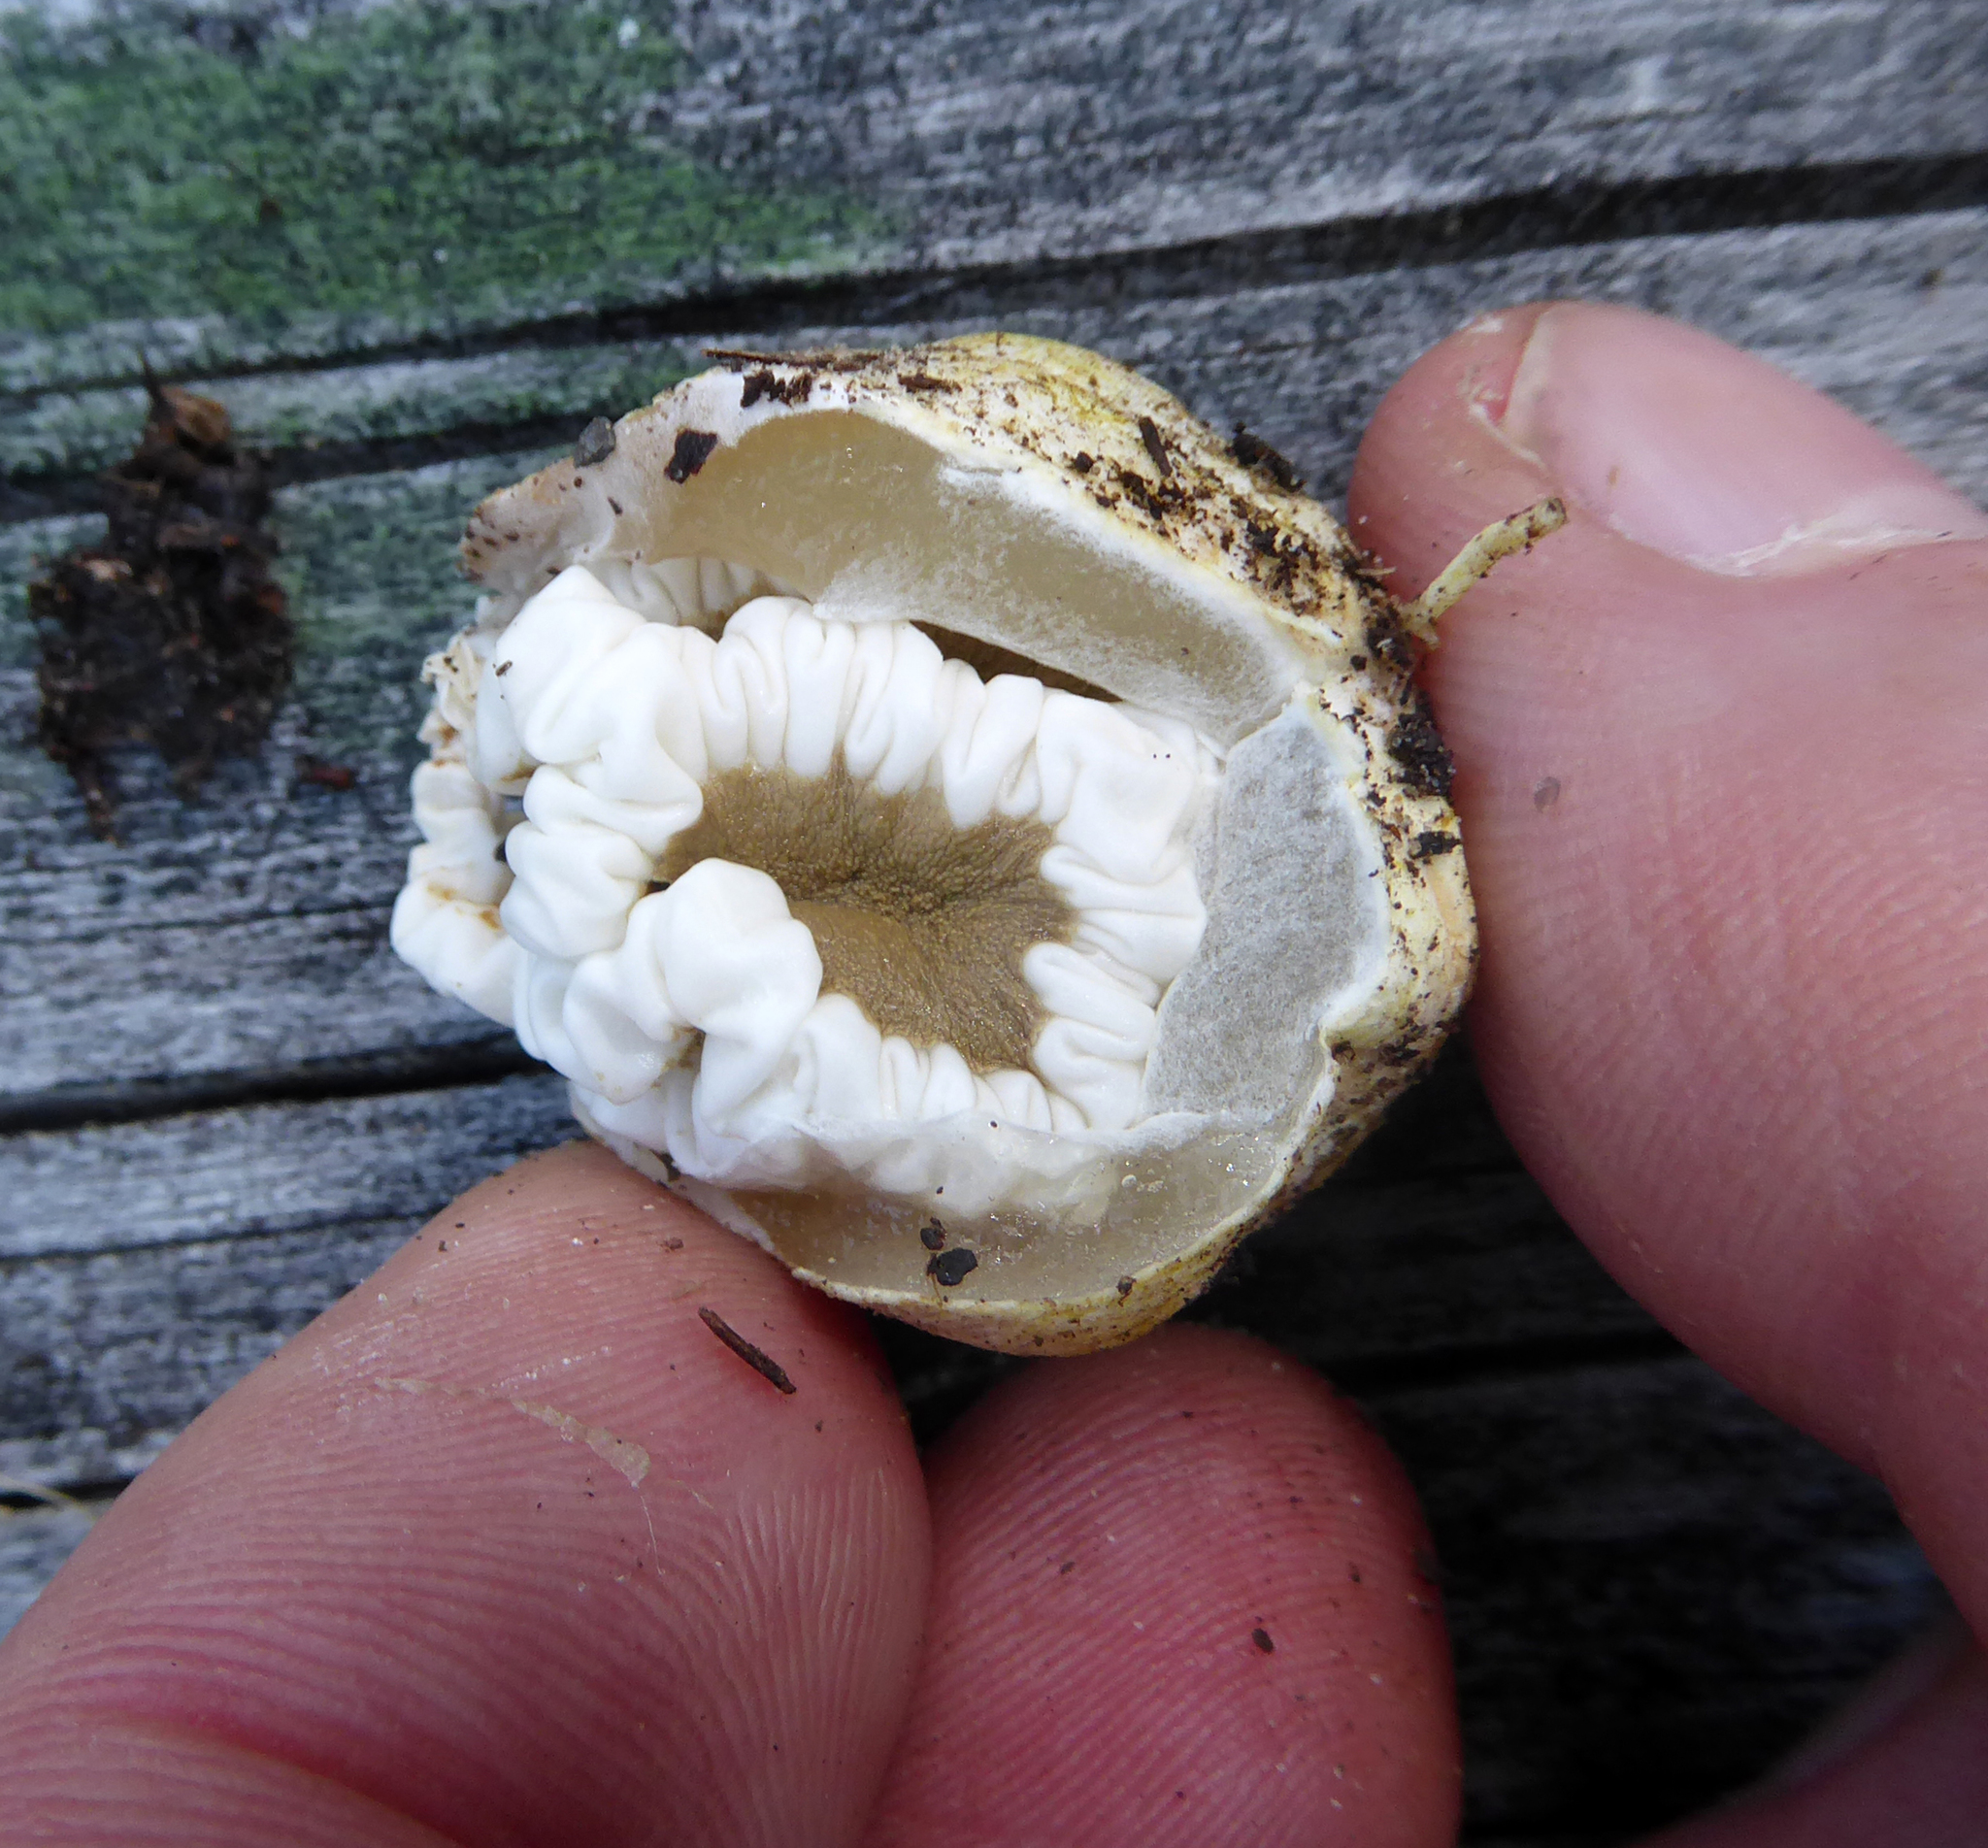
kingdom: Fungi
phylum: Basidiomycota
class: Agaricomycetes
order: Phallales
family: Phallaceae
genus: Ileodictyon
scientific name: Ileodictyon cibarium
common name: Basket fungus
